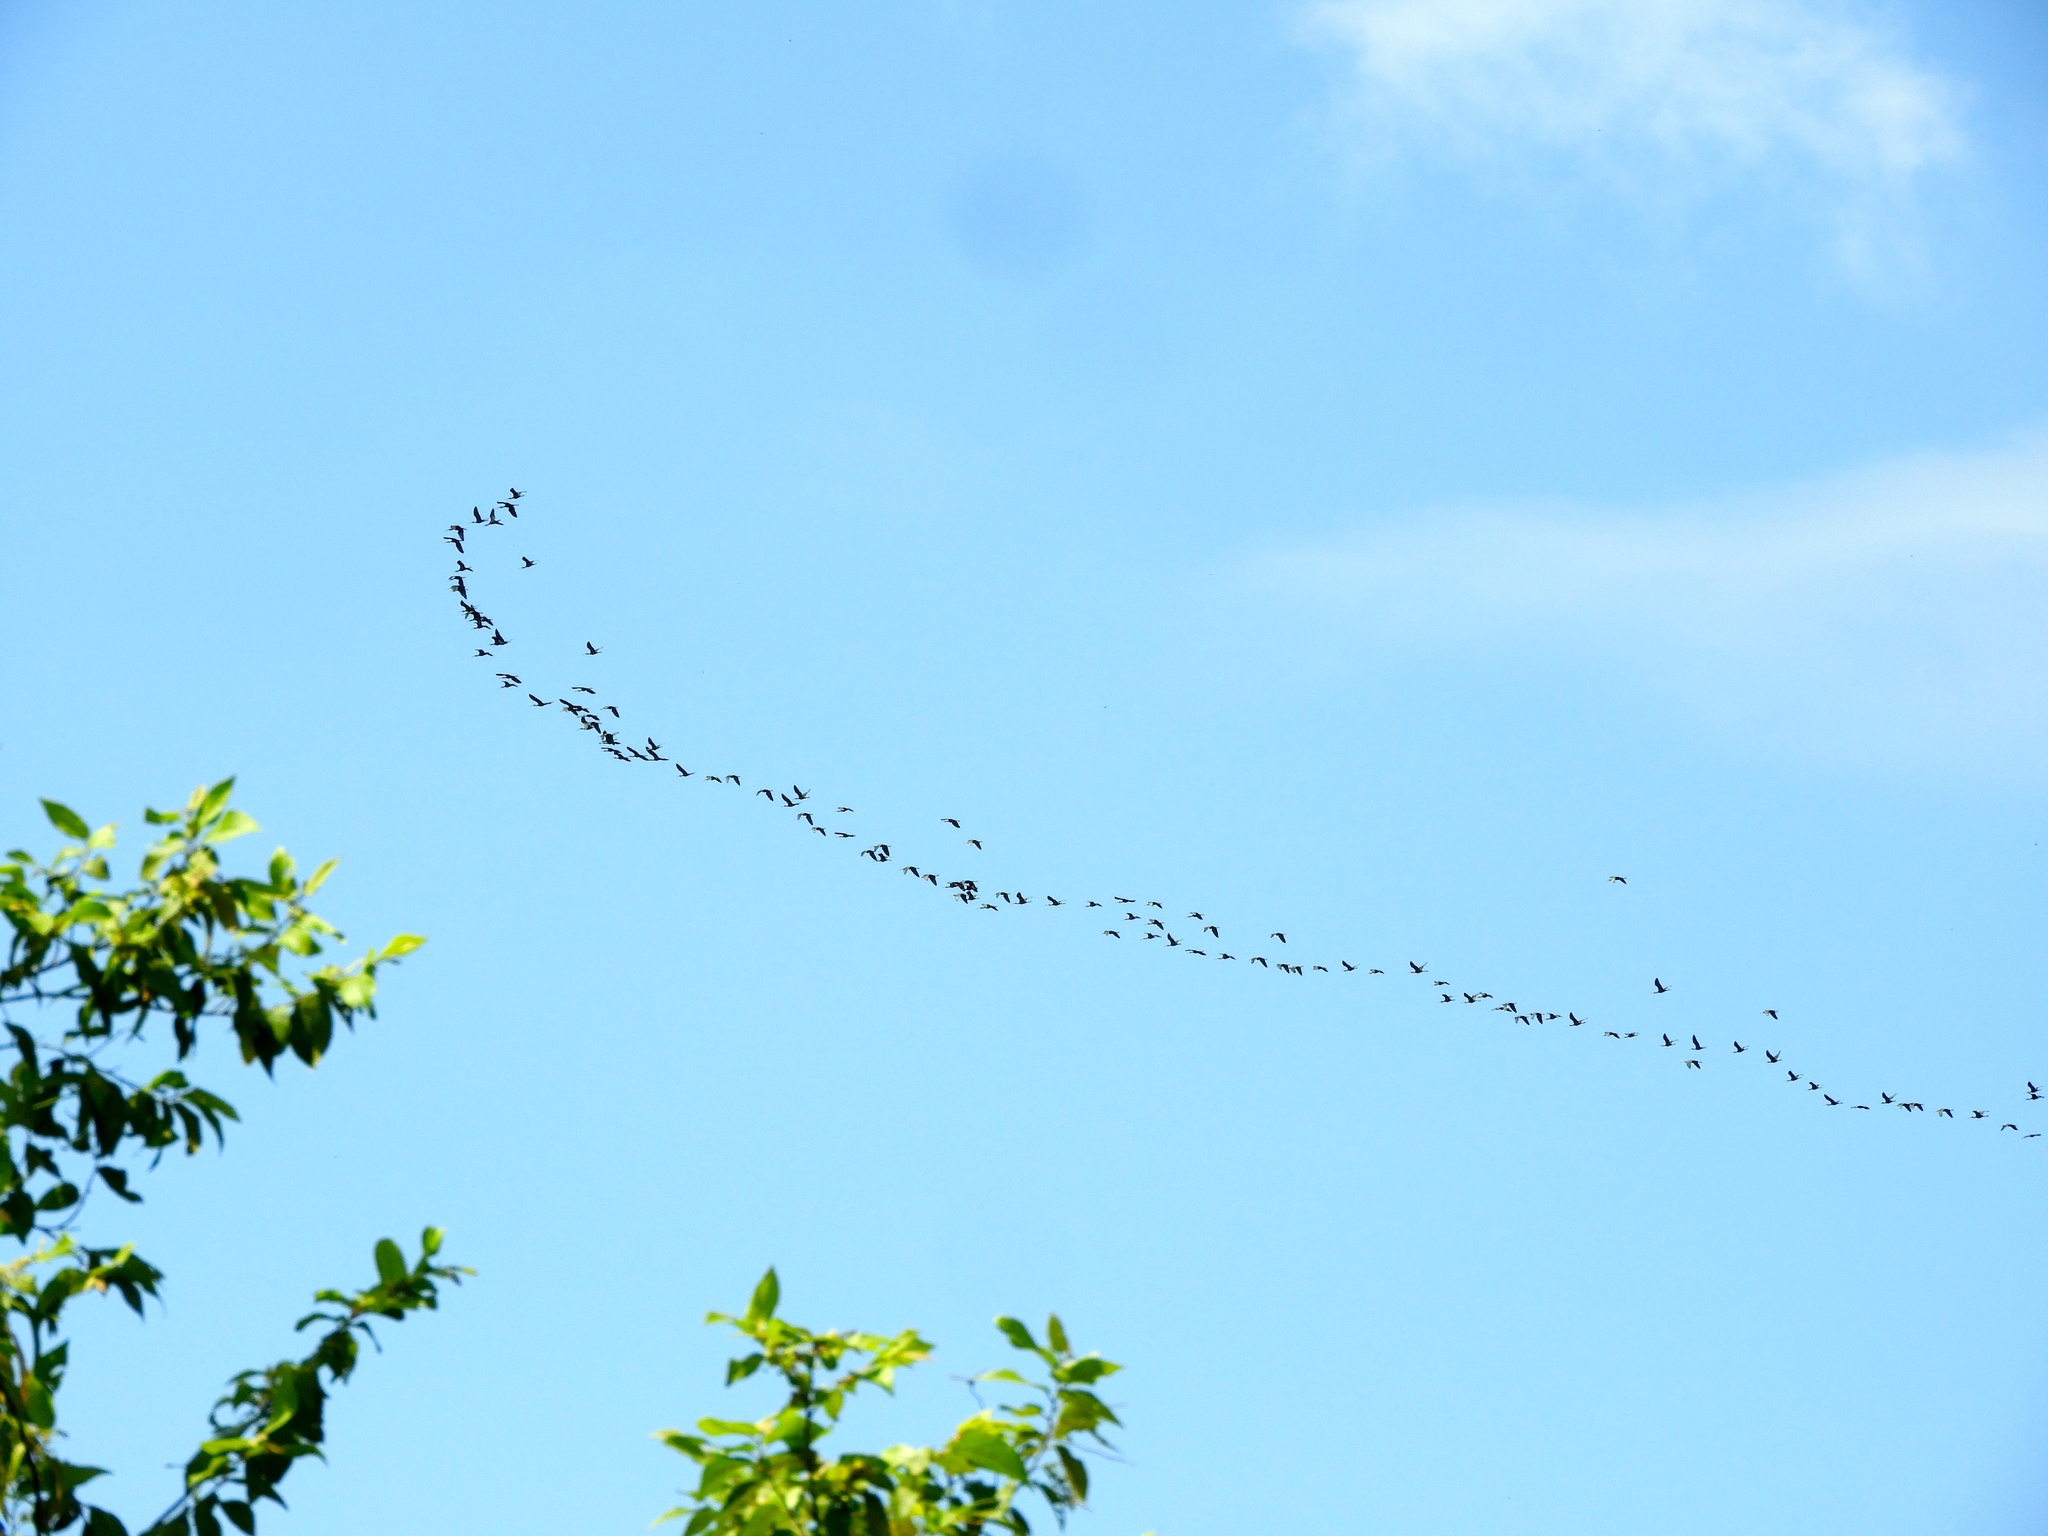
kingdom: Animalia
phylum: Chordata
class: Aves
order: Pelecaniformes
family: Threskiornithidae
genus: Plegadis
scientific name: Plegadis chihi
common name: White-faced ibis
